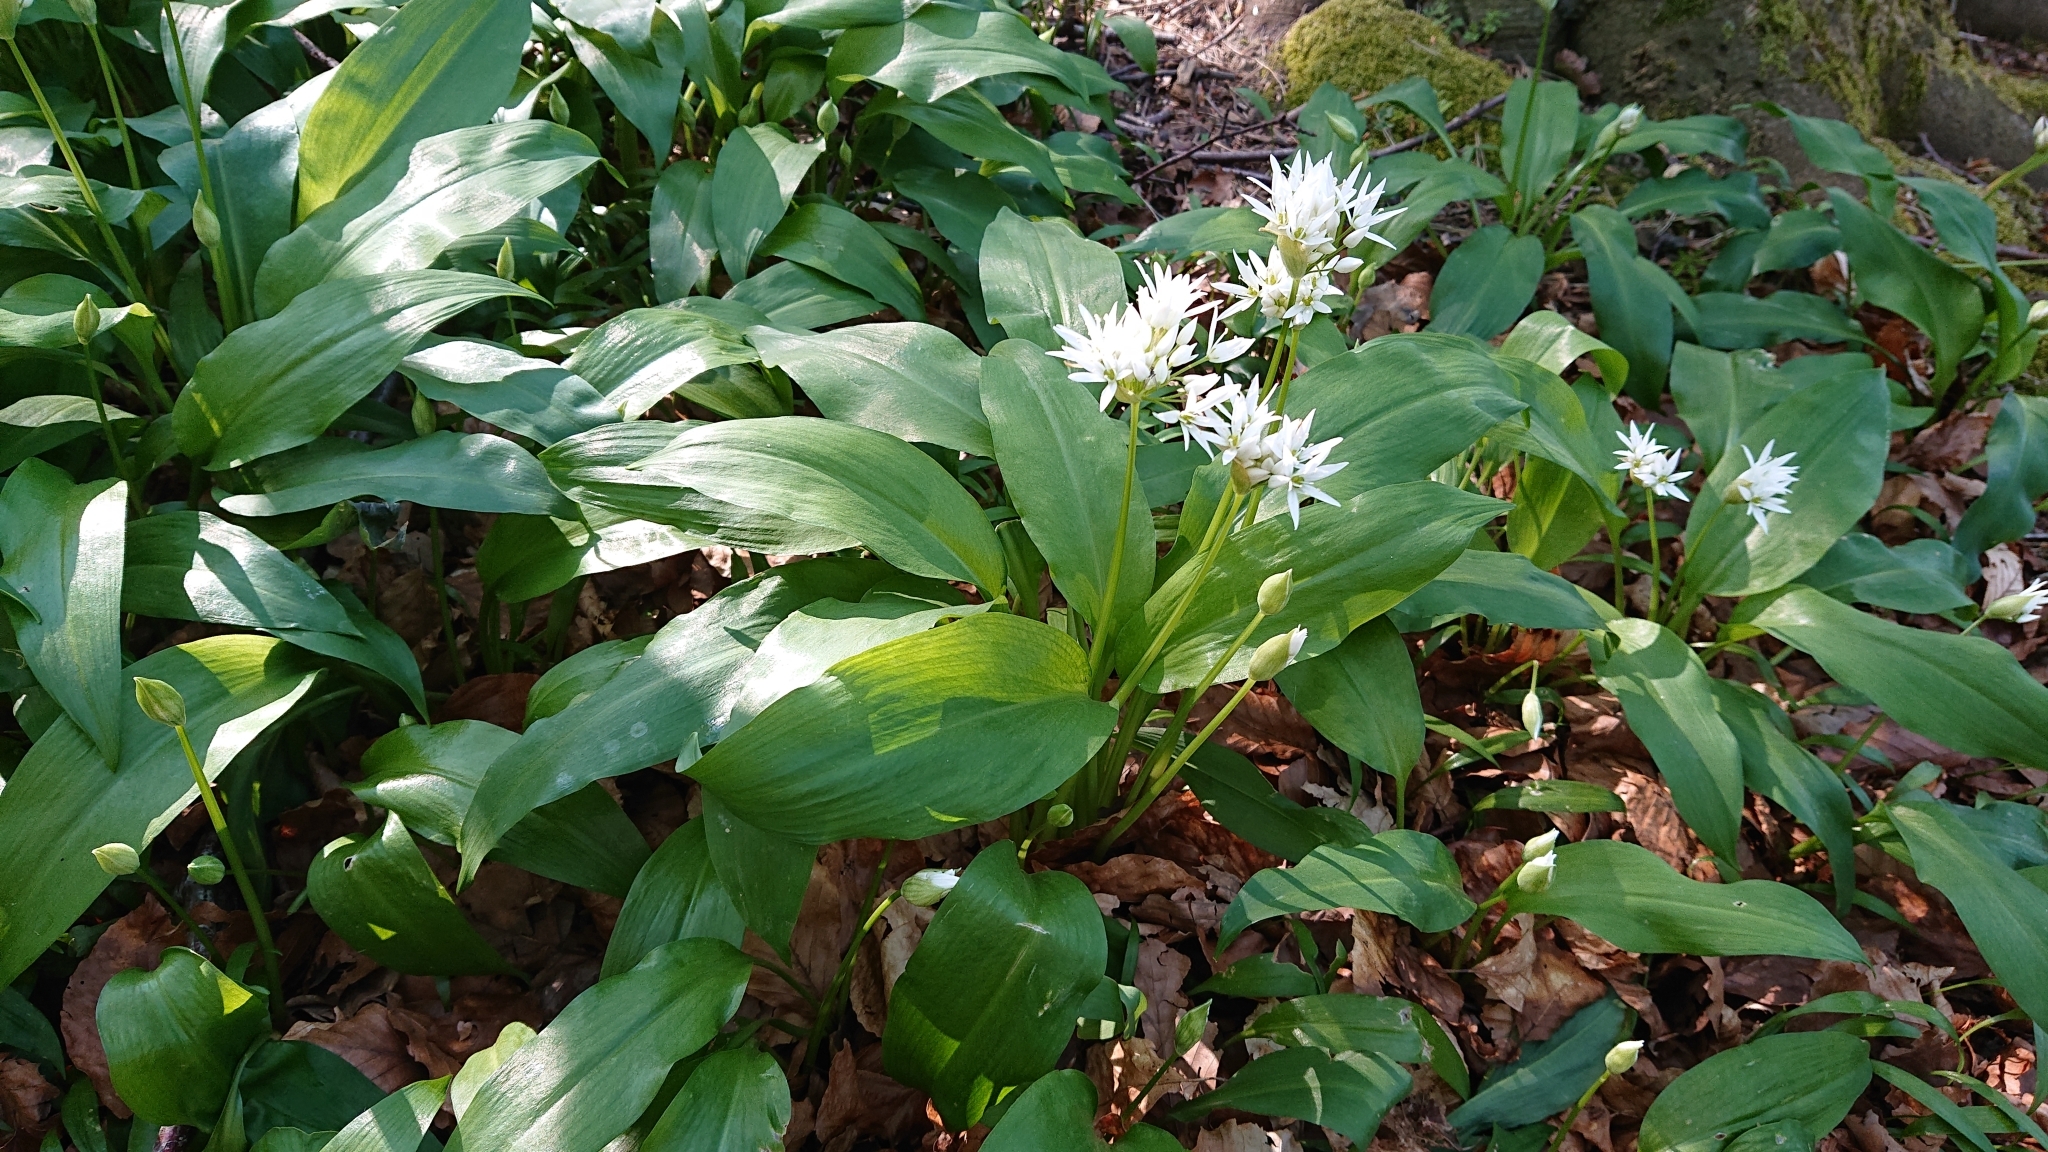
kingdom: Plantae
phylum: Tracheophyta
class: Liliopsida
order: Asparagales
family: Amaryllidaceae
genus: Allium
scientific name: Allium ursinum
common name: Ramsons
